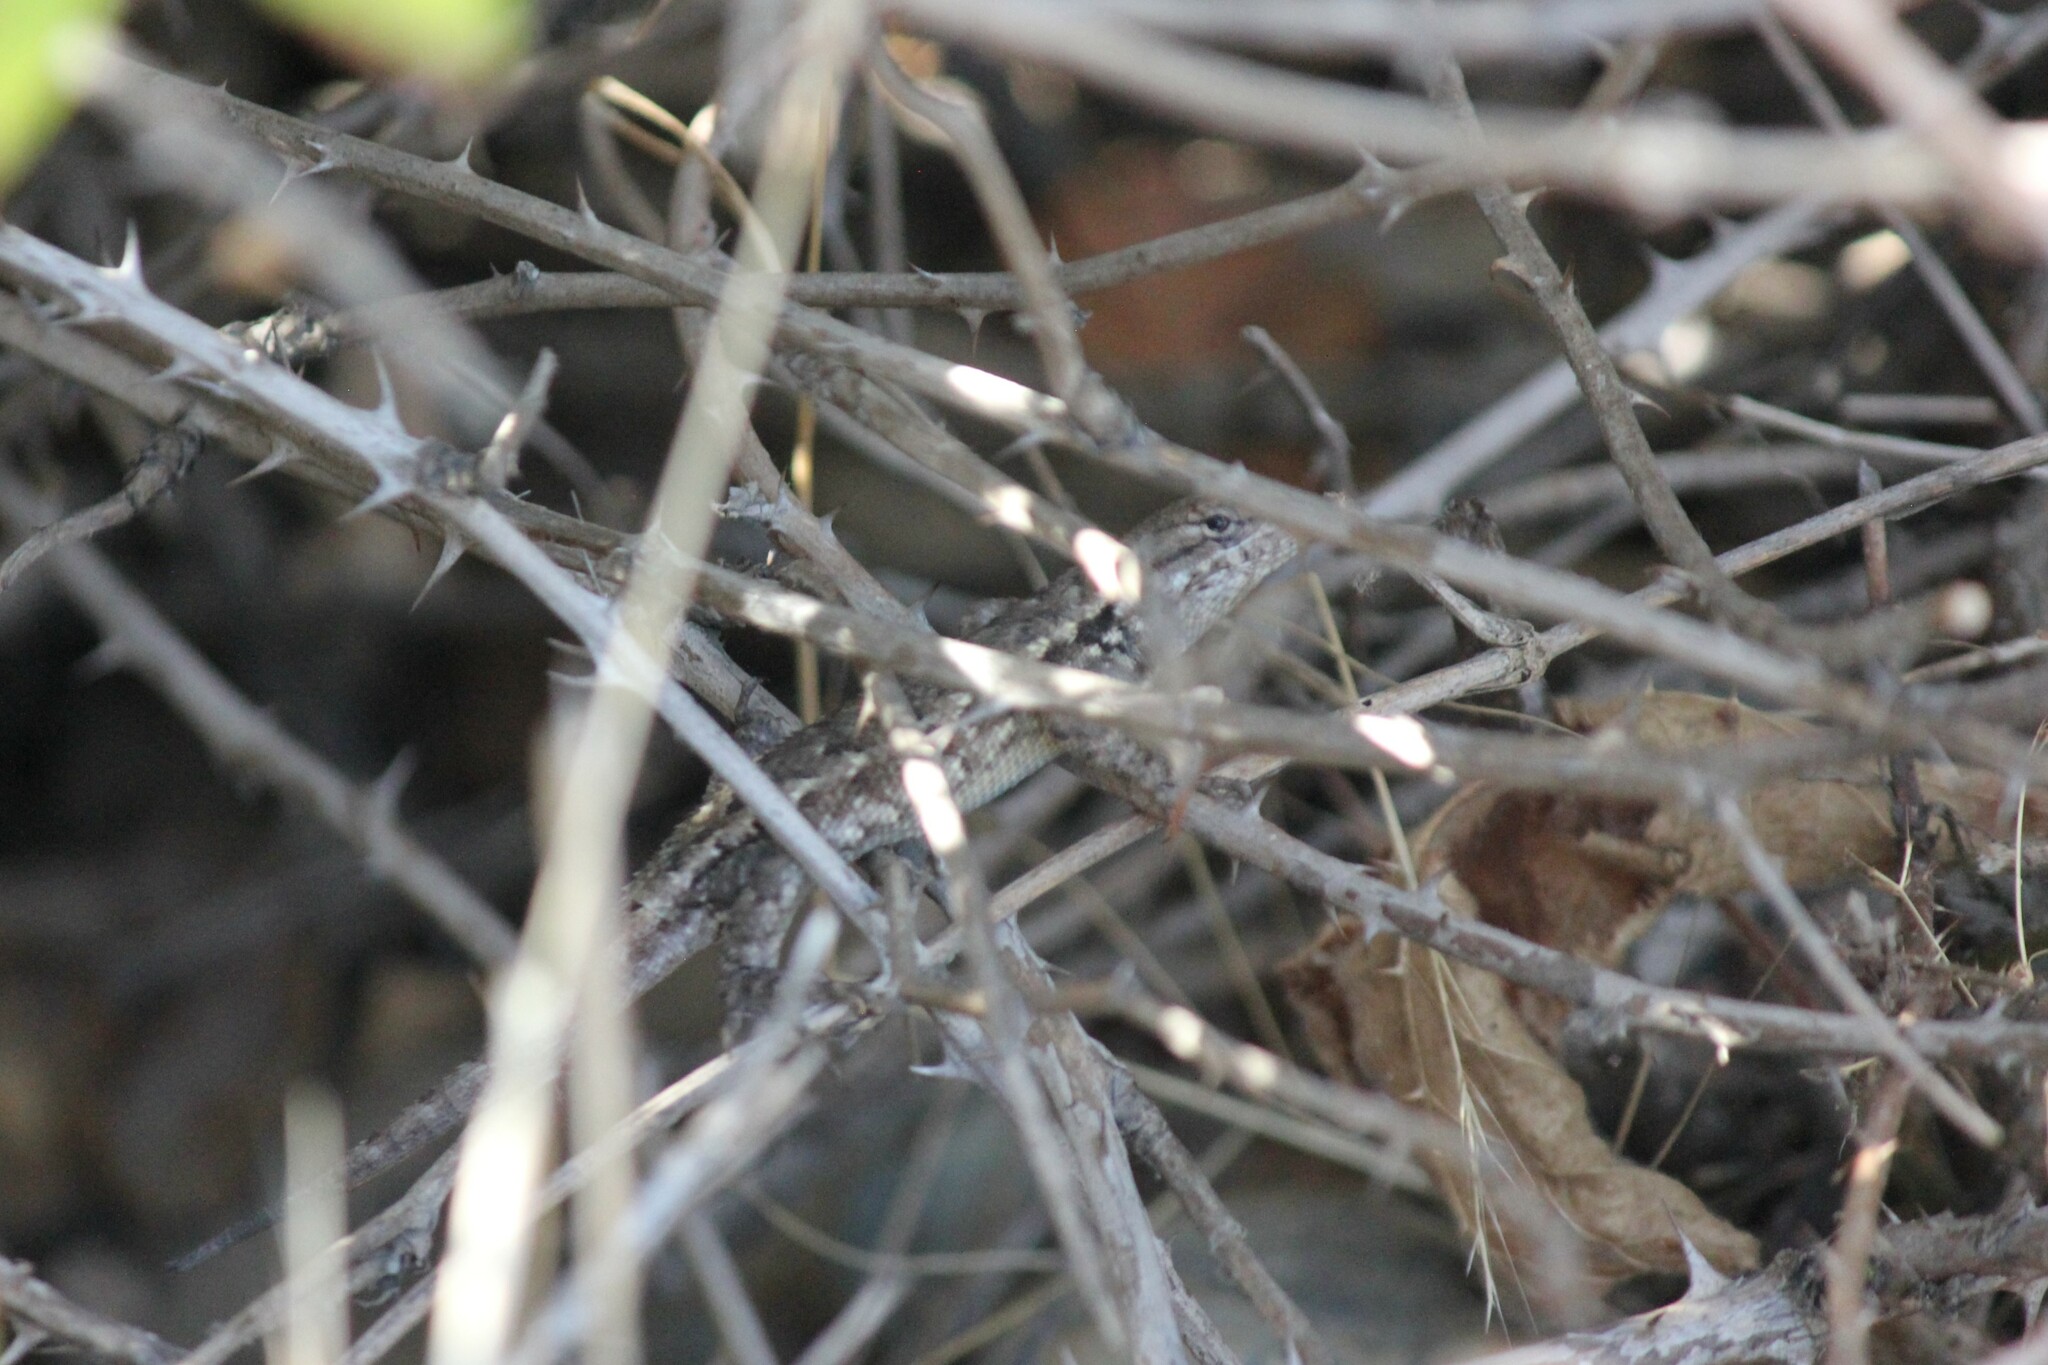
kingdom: Animalia
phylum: Chordata
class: Squamata
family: Phrynosomatidae
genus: Sceloporus
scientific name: Sceloporus occidentalis
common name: Western fence lizard
